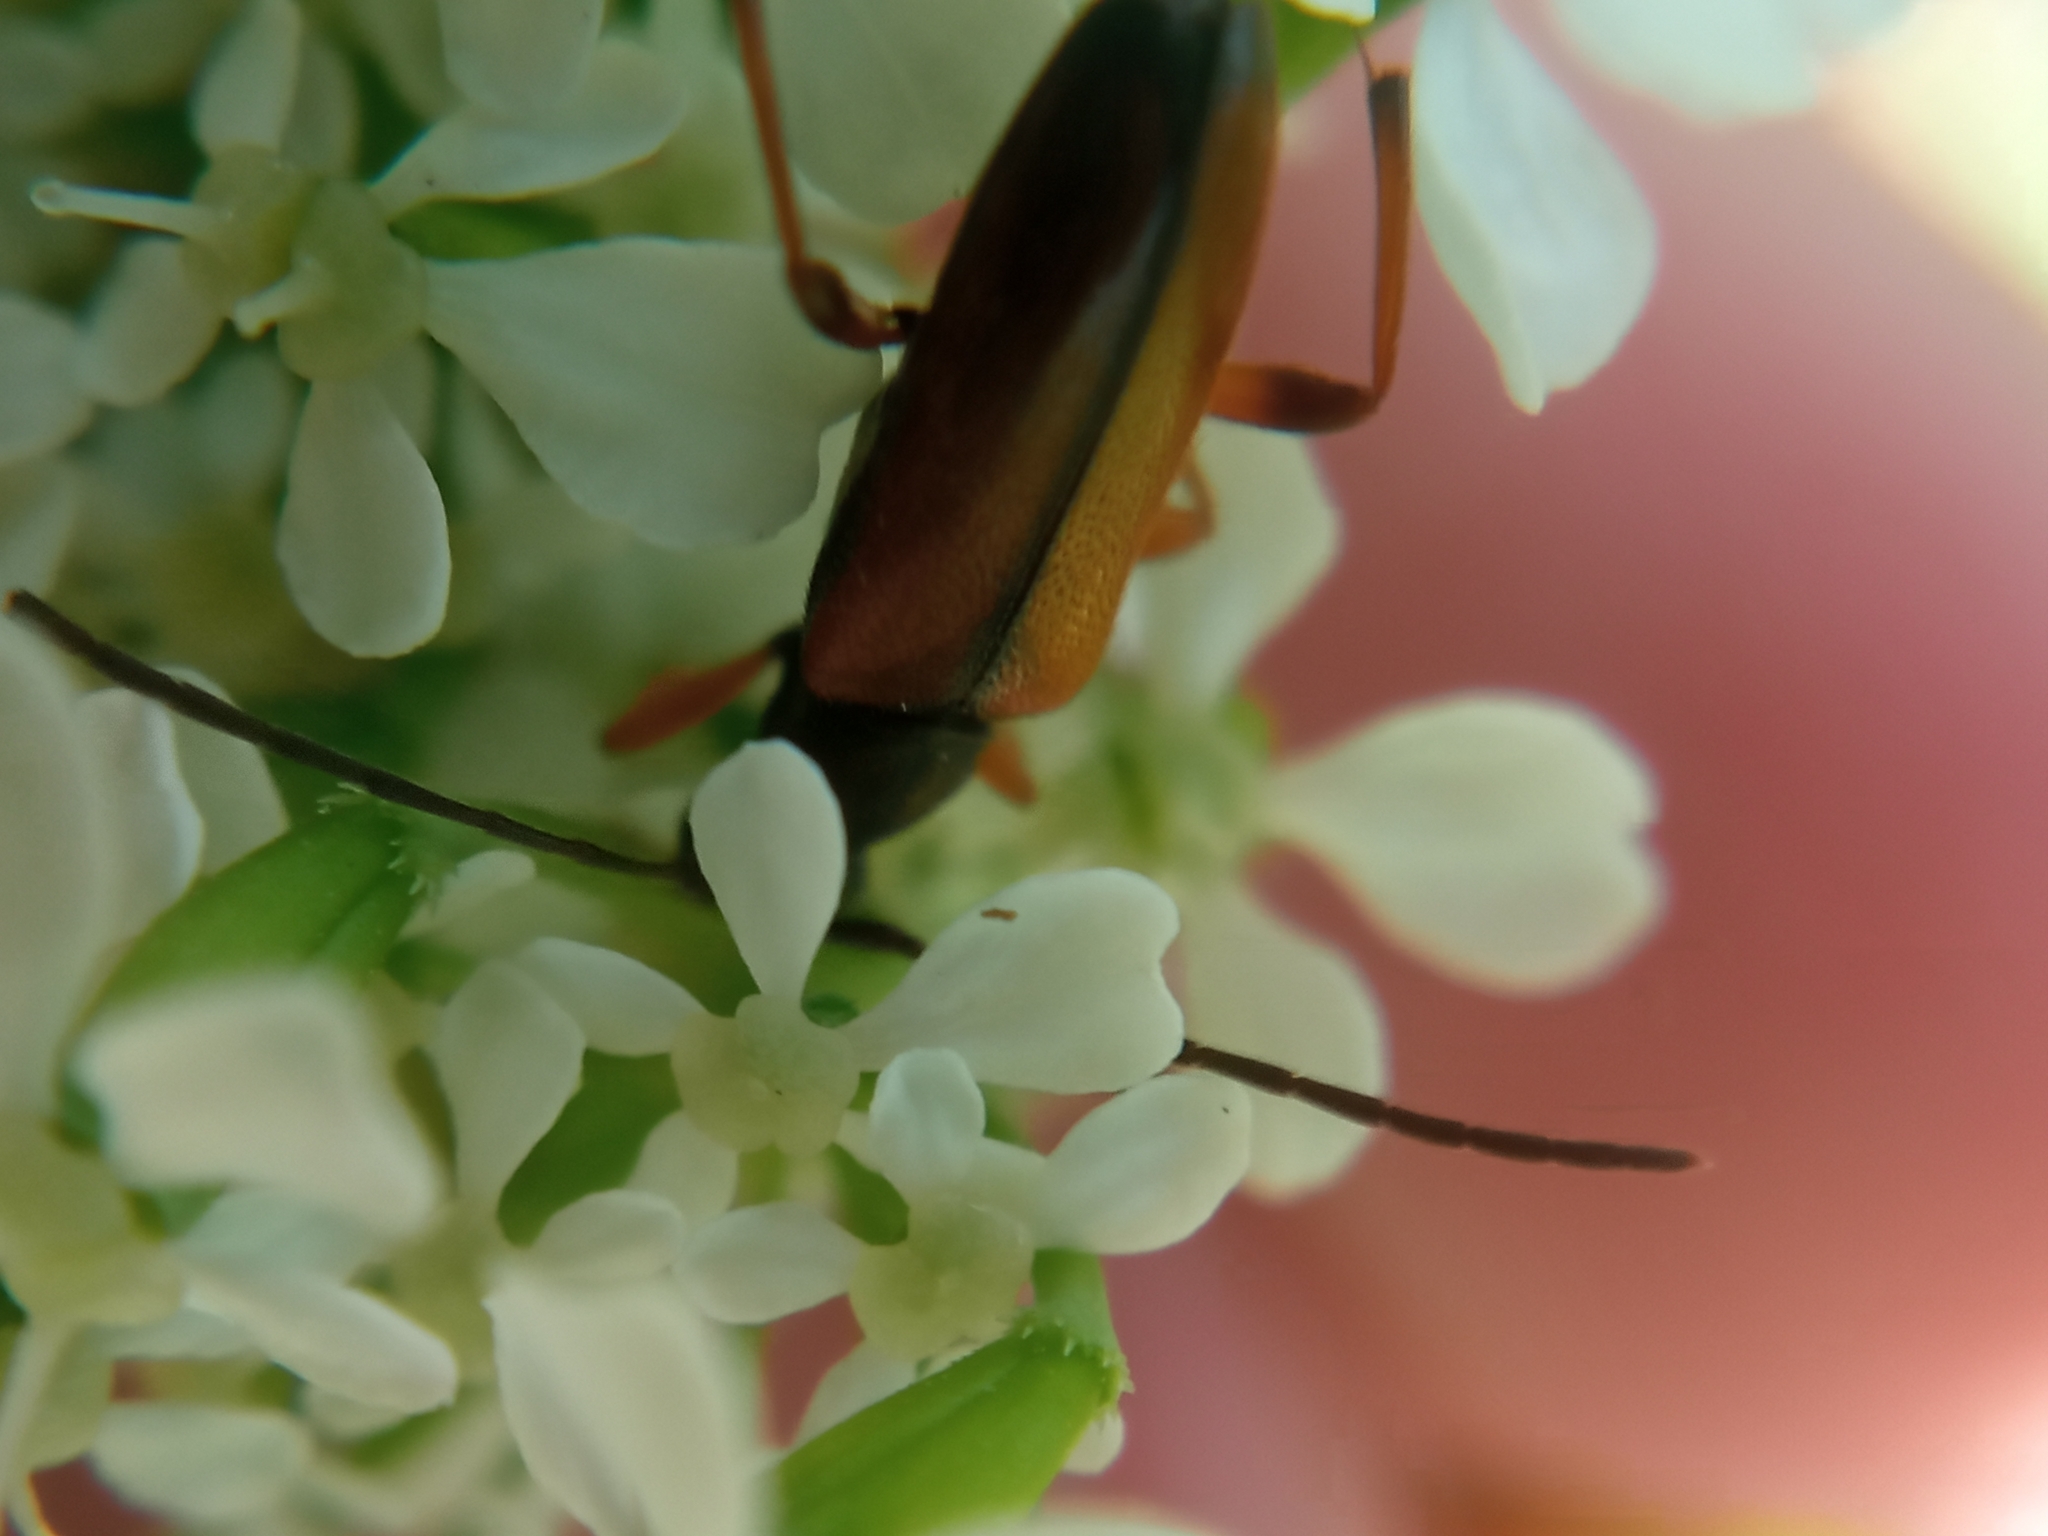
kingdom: Animalia
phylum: Arthropoda
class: Insecta
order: Coleoptera
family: Cerambycidae
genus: Alosterna
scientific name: Alosterna tabacicolor
